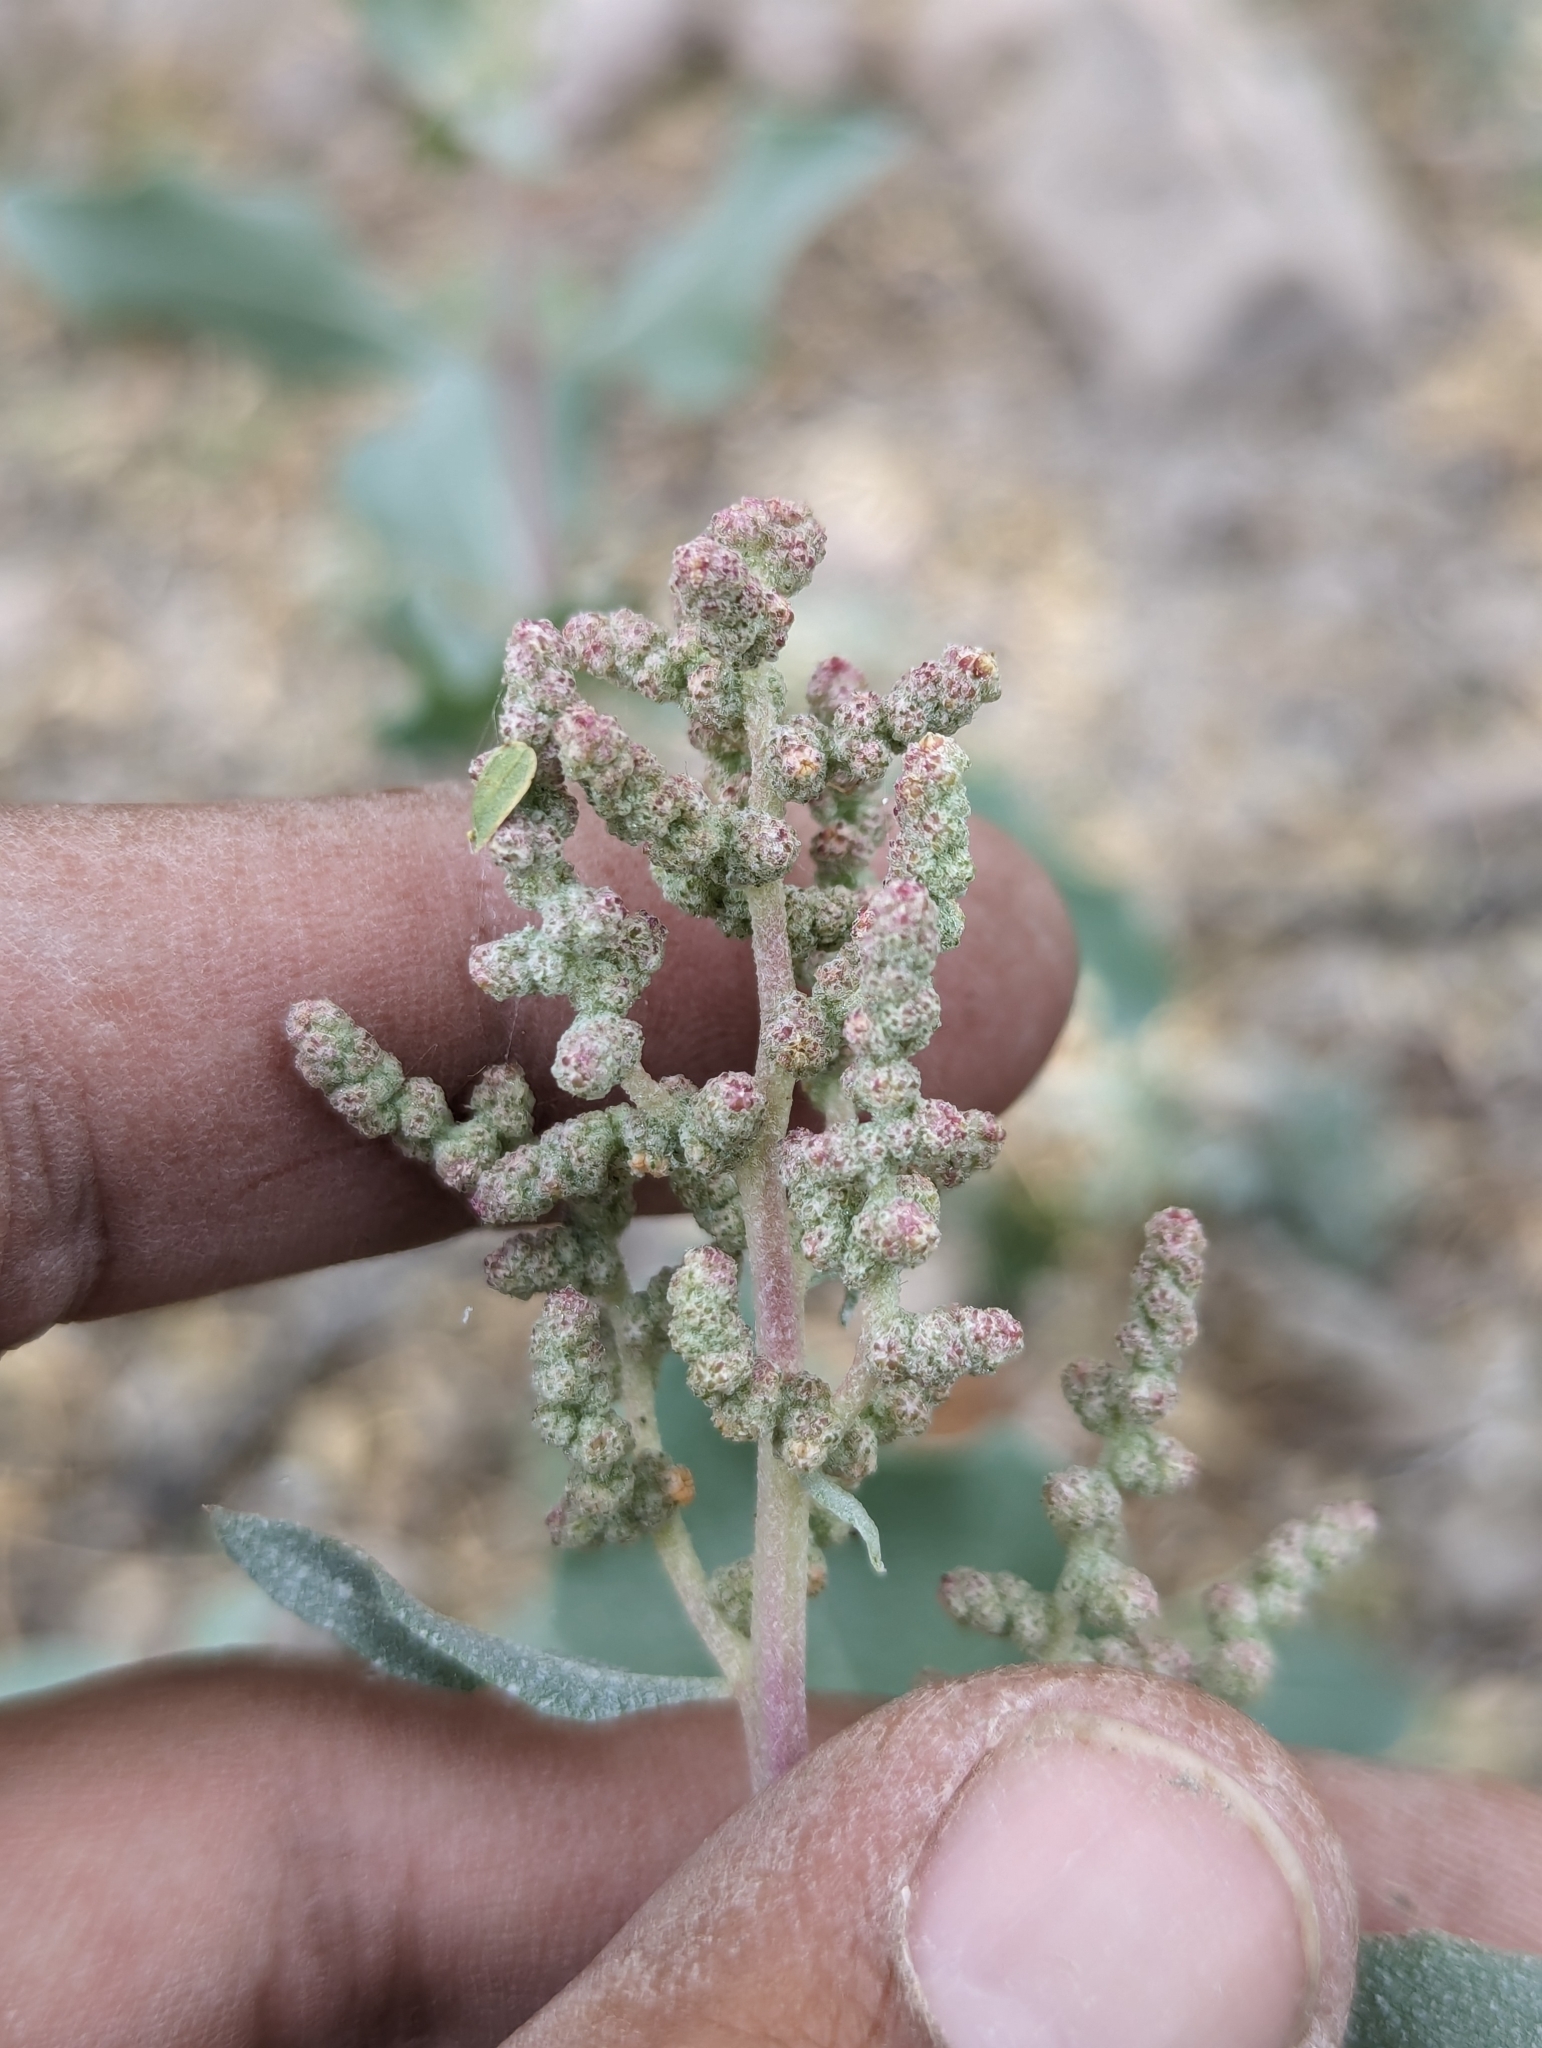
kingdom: Plantae
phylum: Tracheophyta
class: Magnoliopsida
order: Caryophyllales
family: Amaranthaceae
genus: Atriplex
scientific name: Atriplex barclayana
